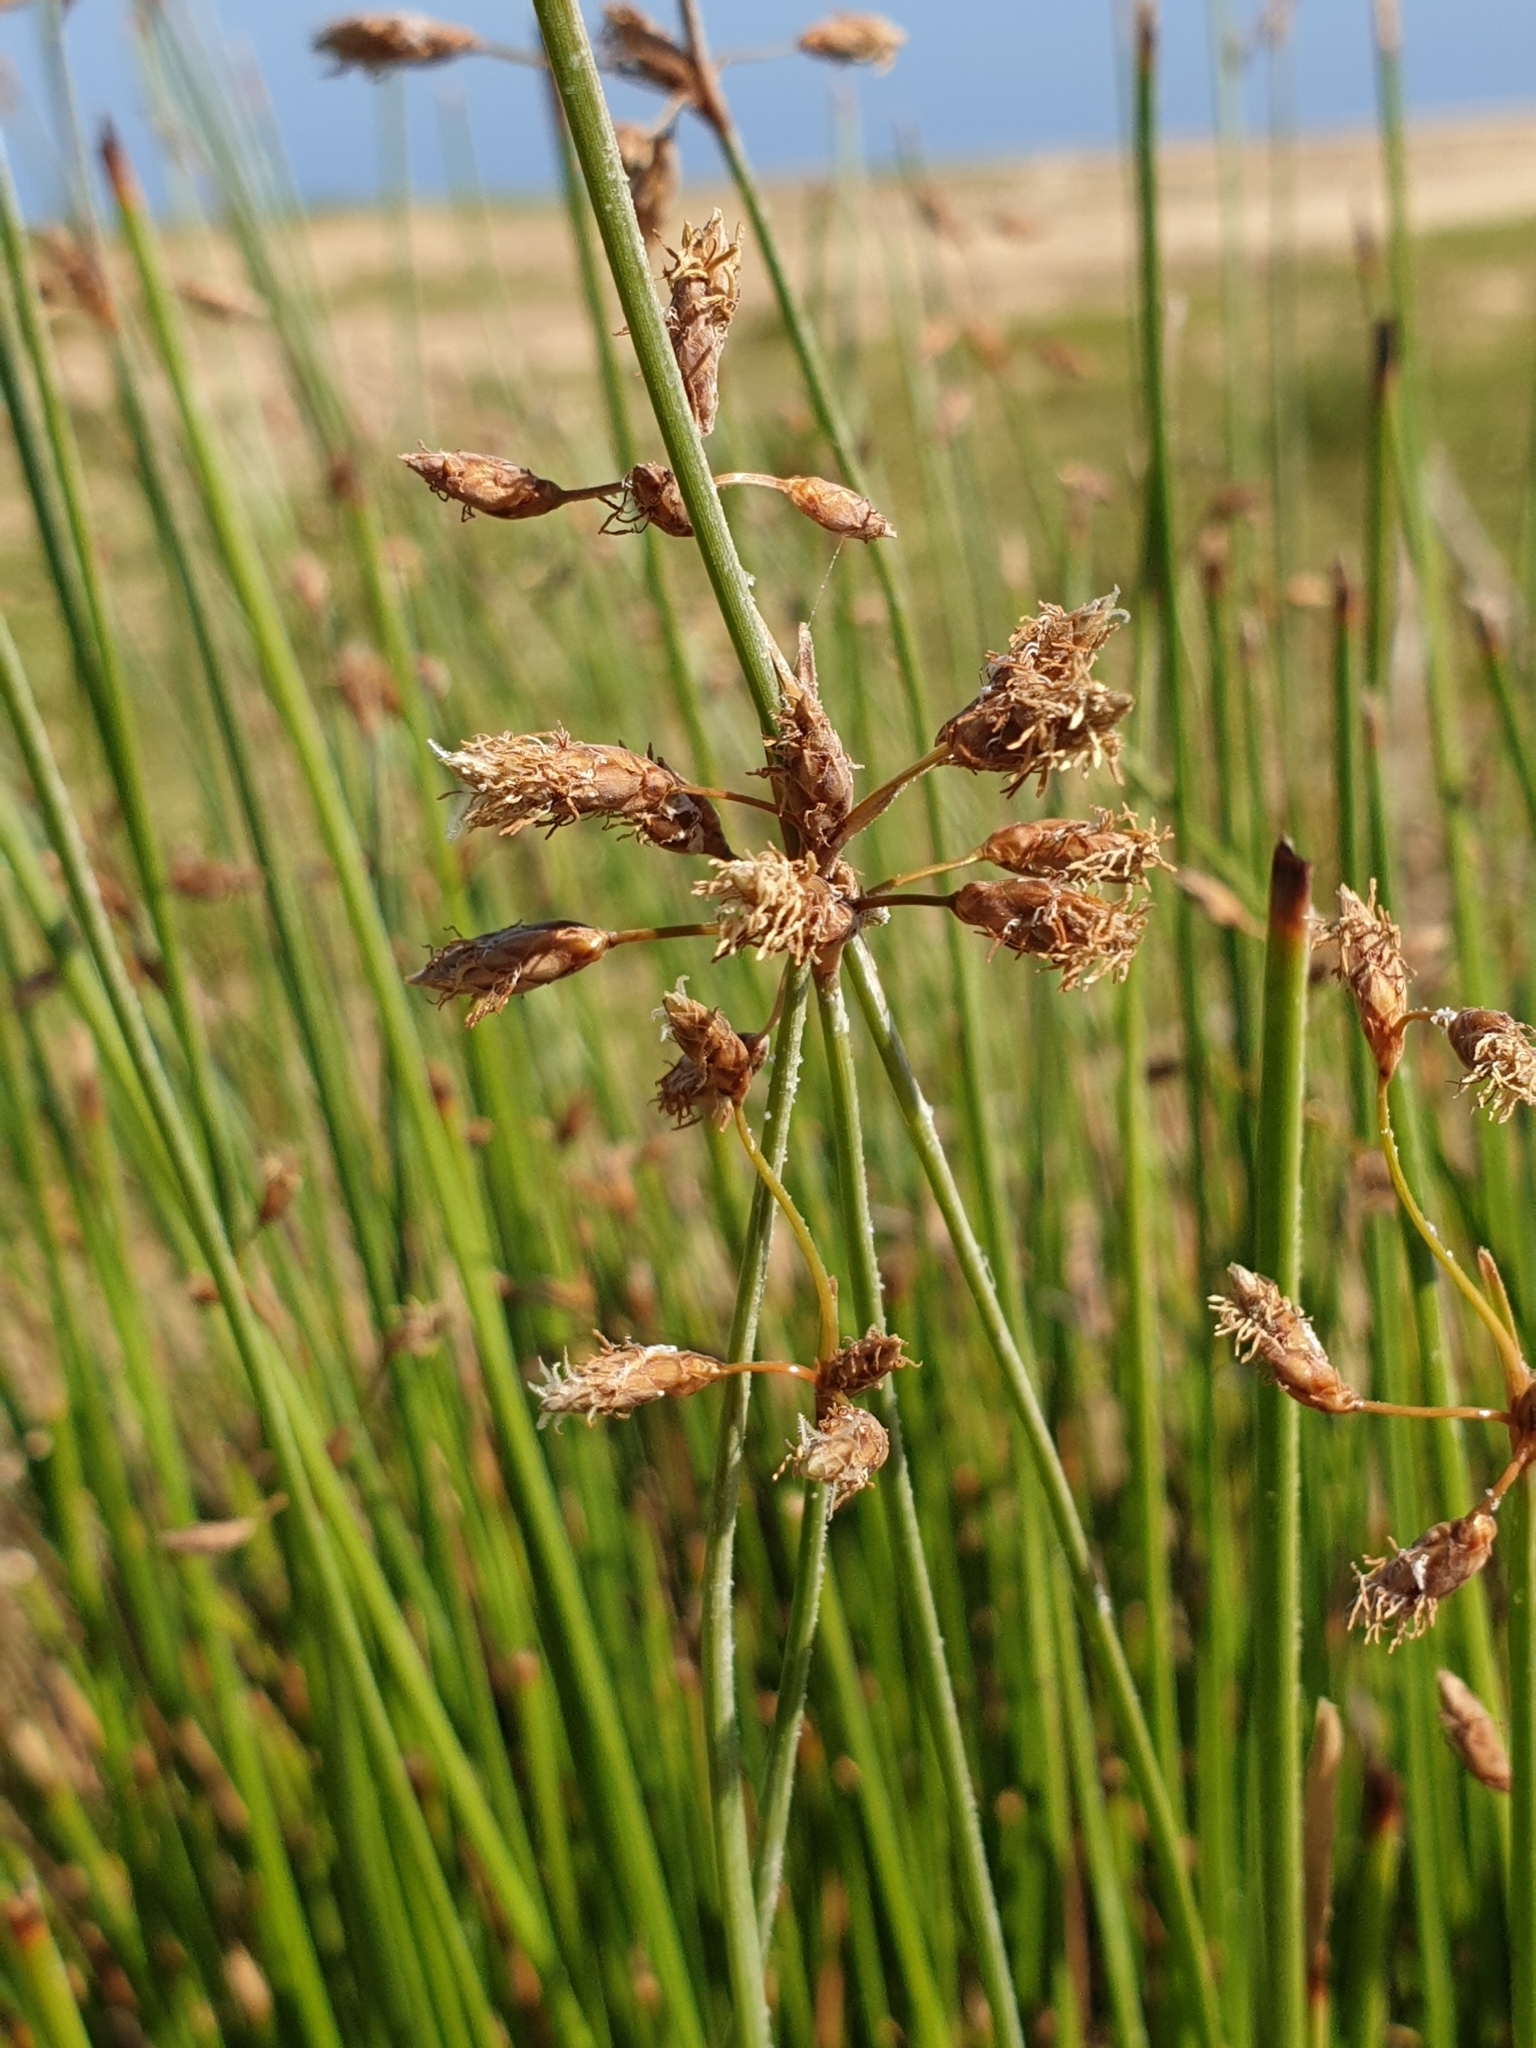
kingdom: Plantae
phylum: Tracheophyta
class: Liliopsida
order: Poales
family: Cyperaceae
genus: Abildgaardia
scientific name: Abildgaardia triflora
